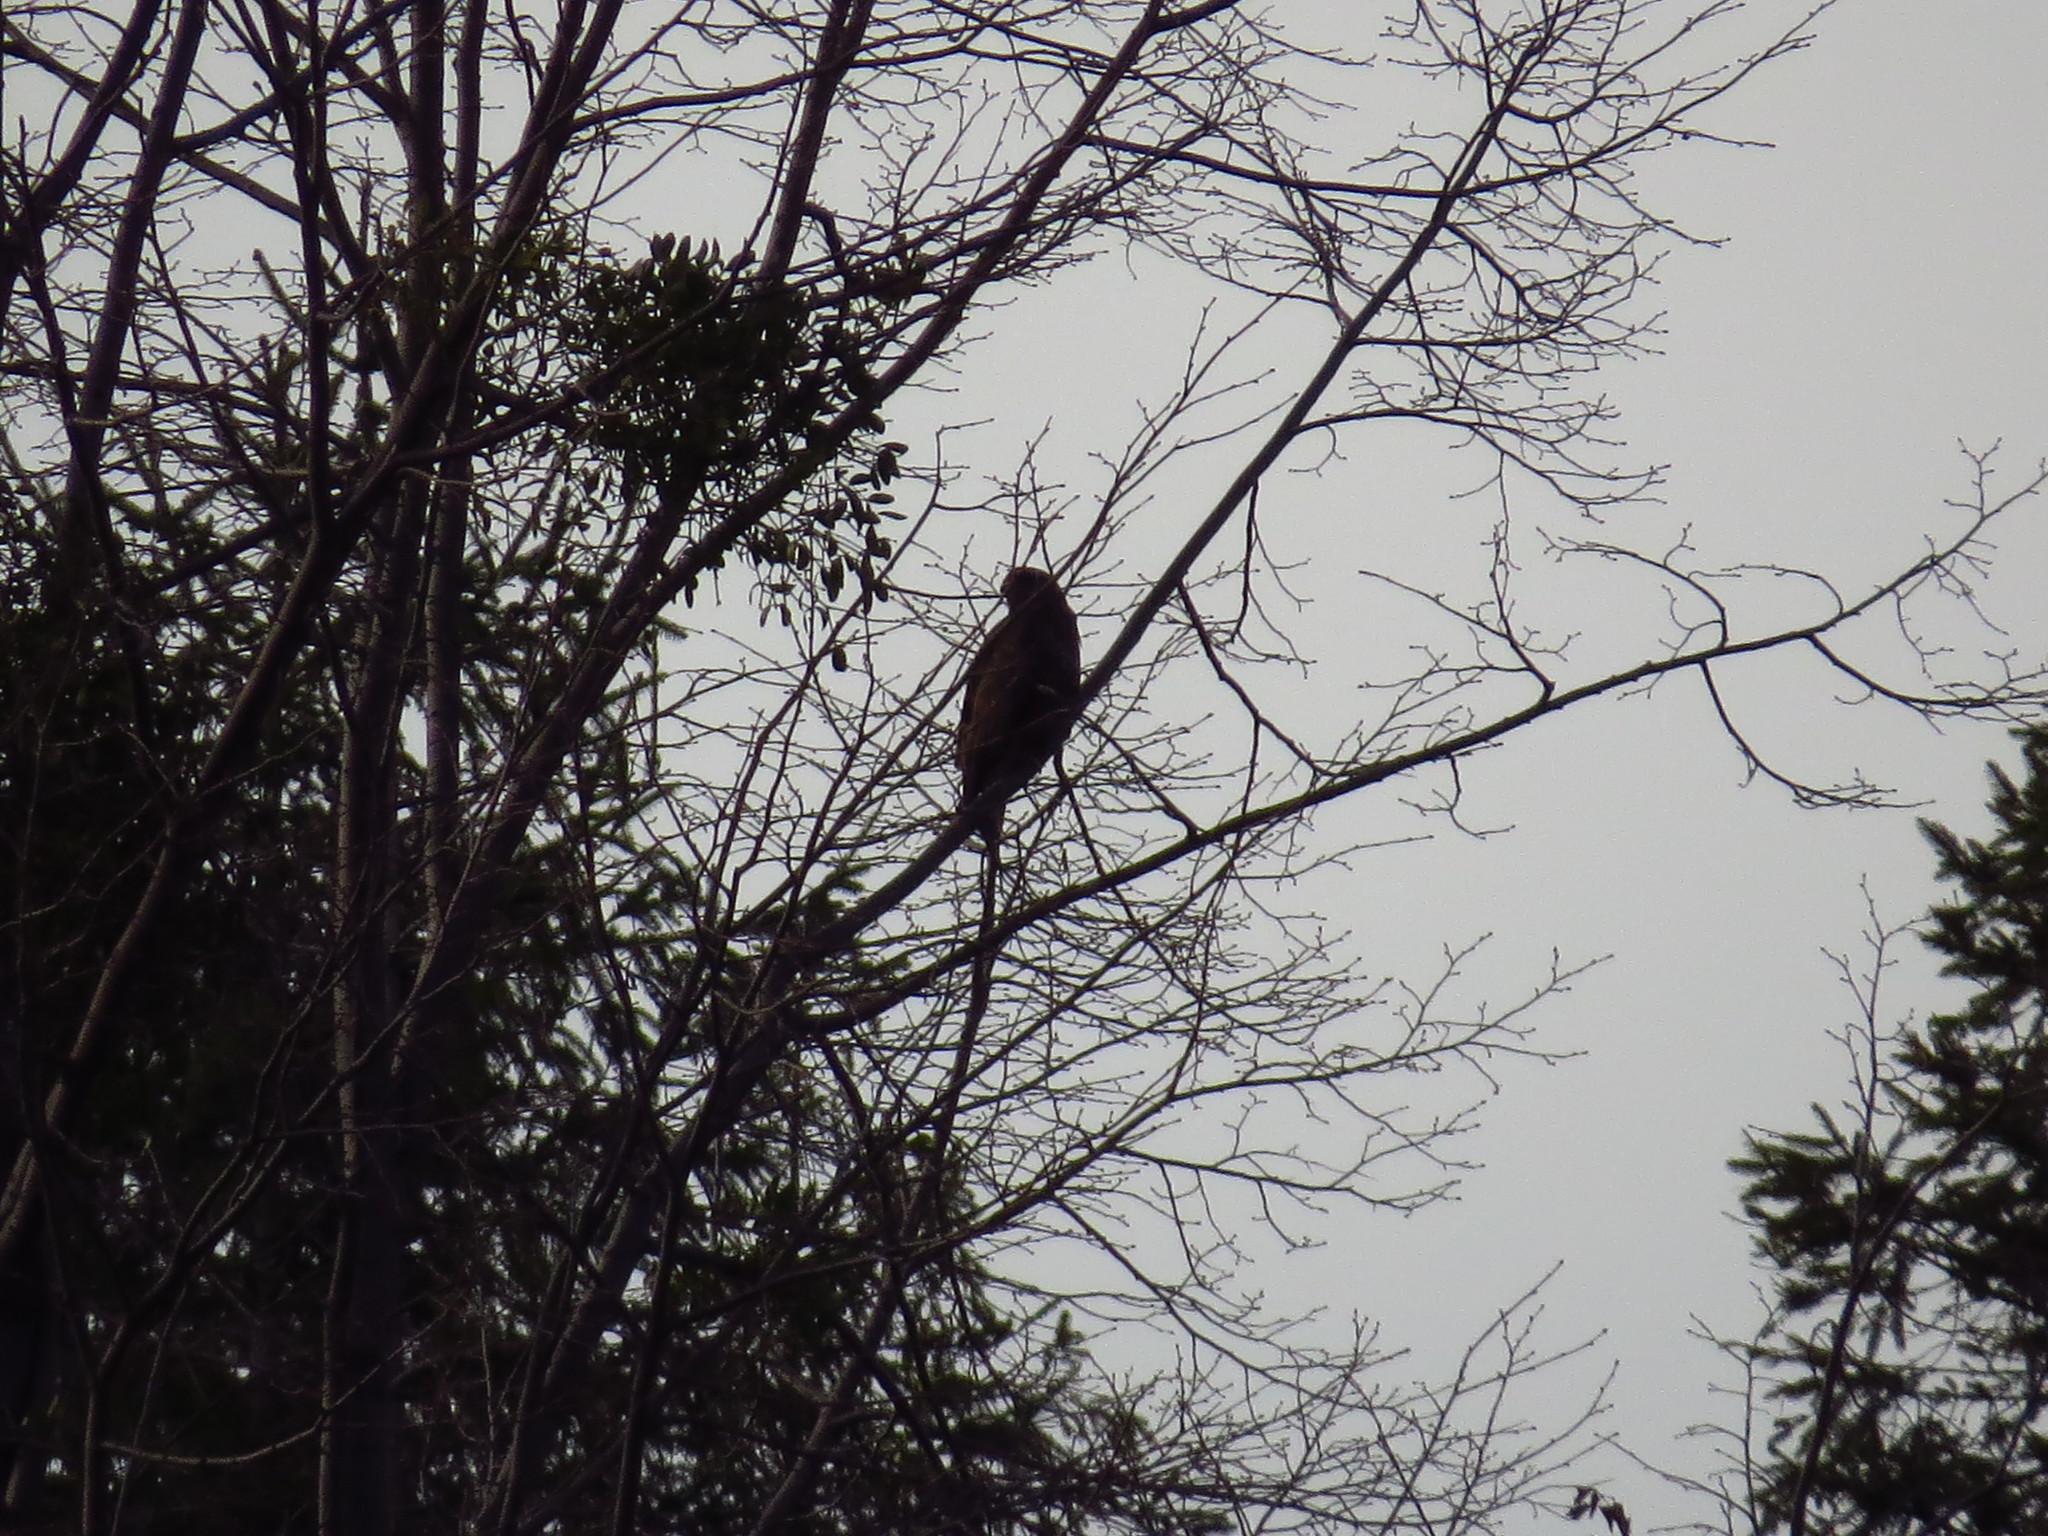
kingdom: Animalia
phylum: Chordata
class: Aves
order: Accipitriformes
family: Accipitridae
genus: Buteo
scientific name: Buteo buteo
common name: Common buzzard
